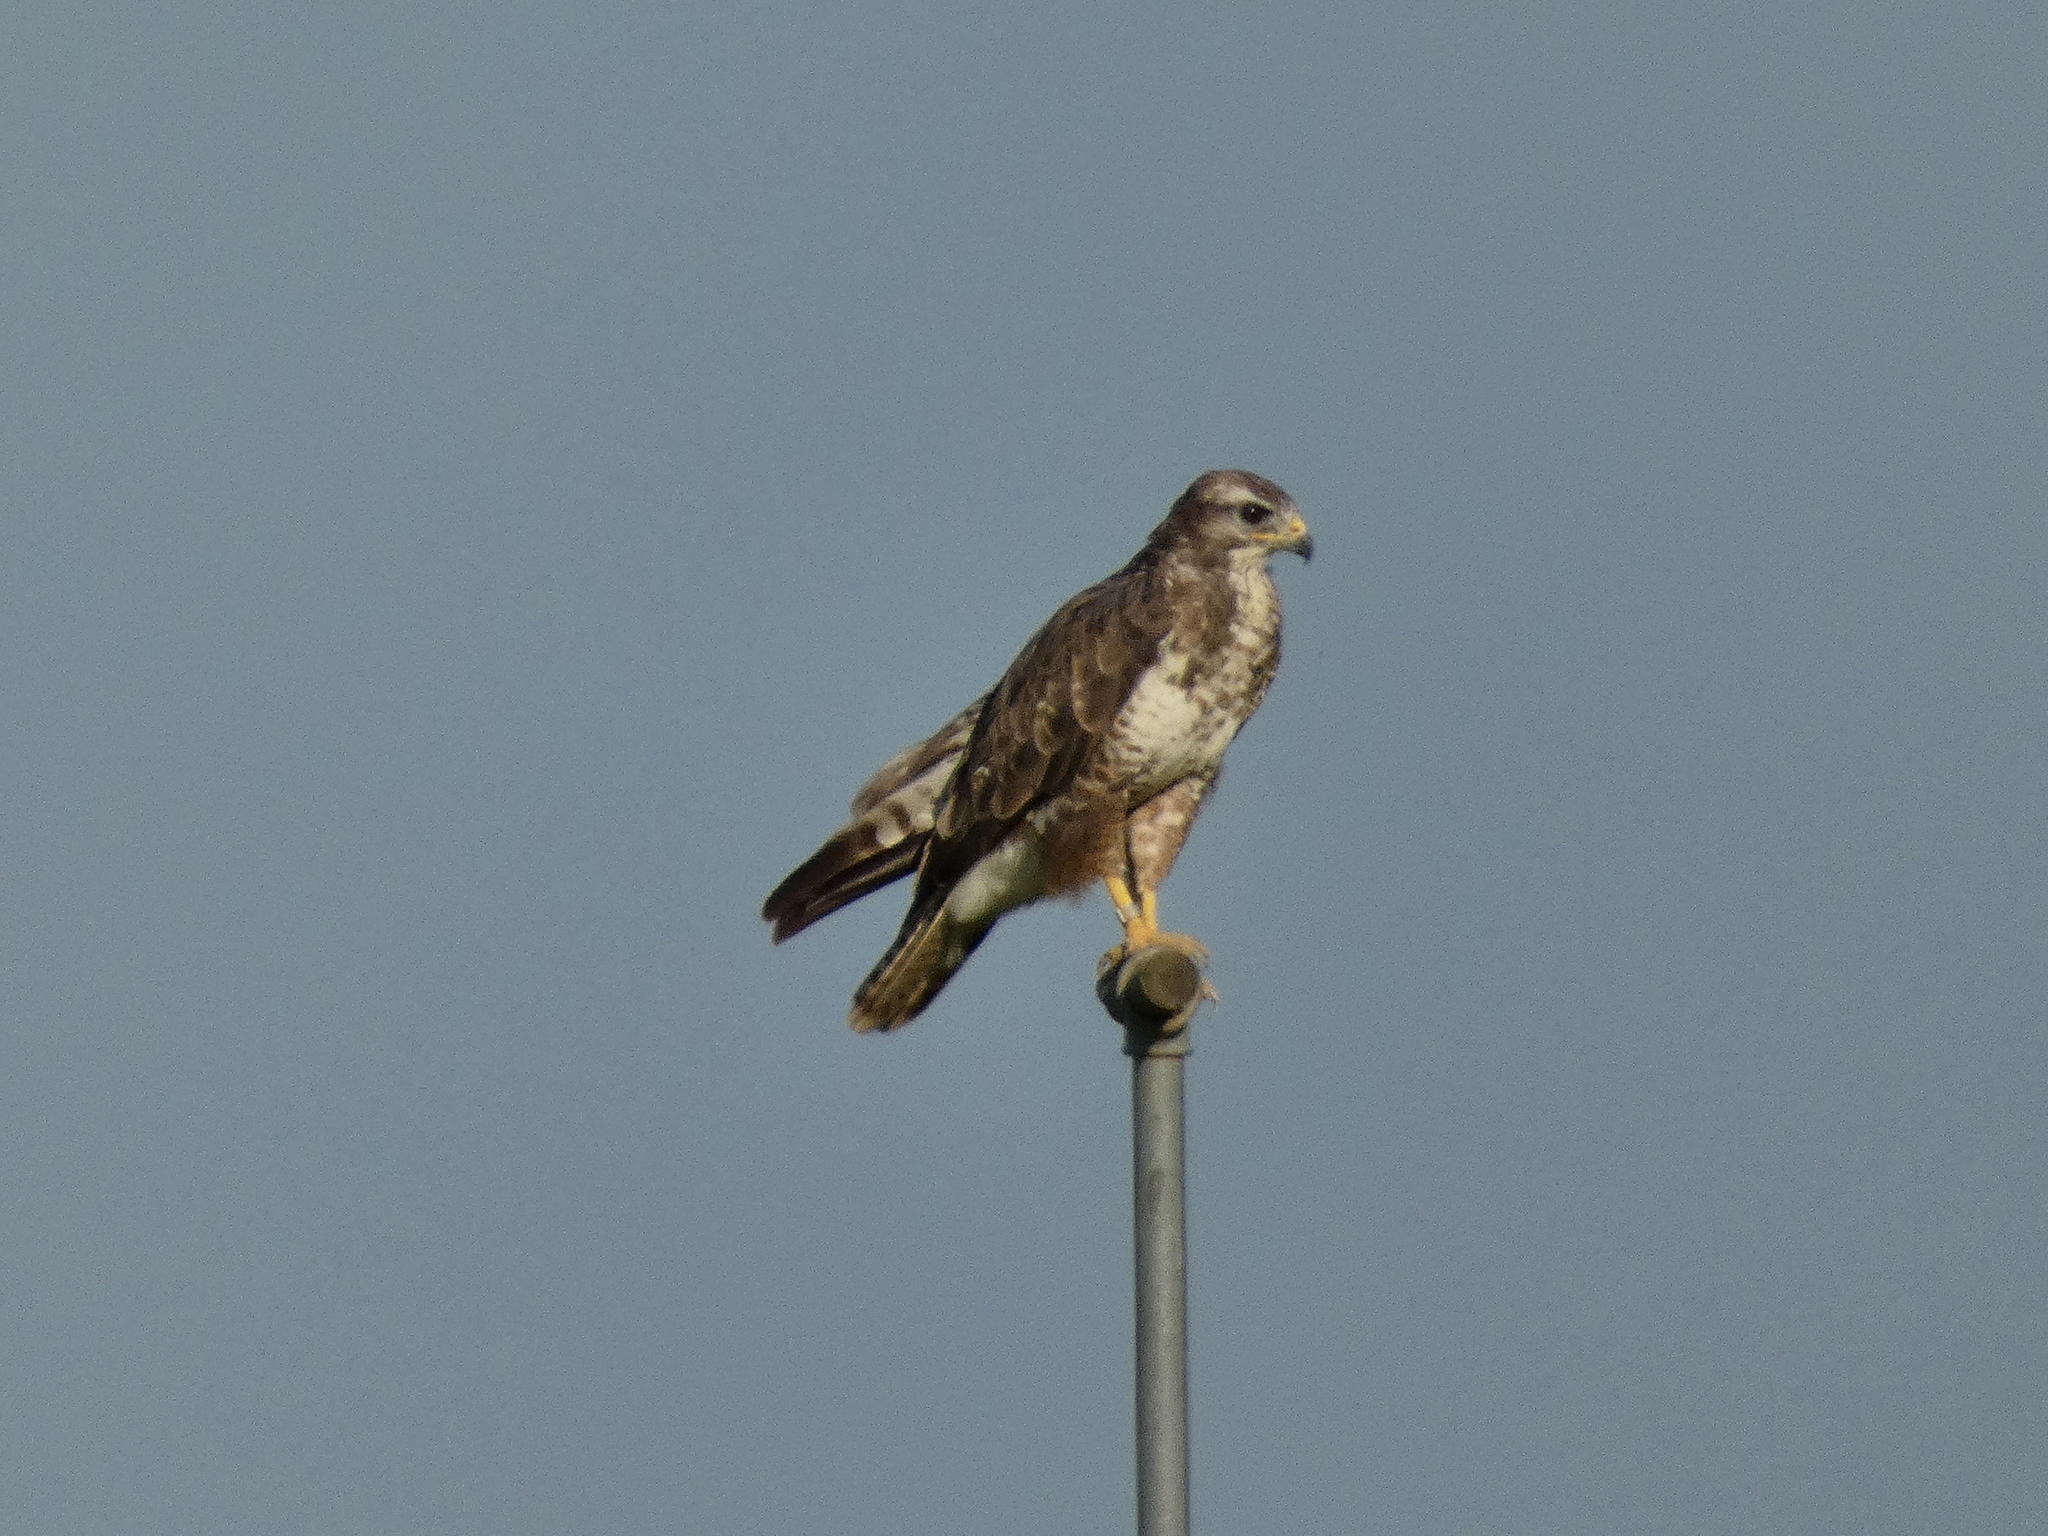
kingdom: Animalia
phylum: Chordata
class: Aves
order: Accipitriformes
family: Accipitridae
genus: Buteo
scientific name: Buteo buteo
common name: Common buzzard
